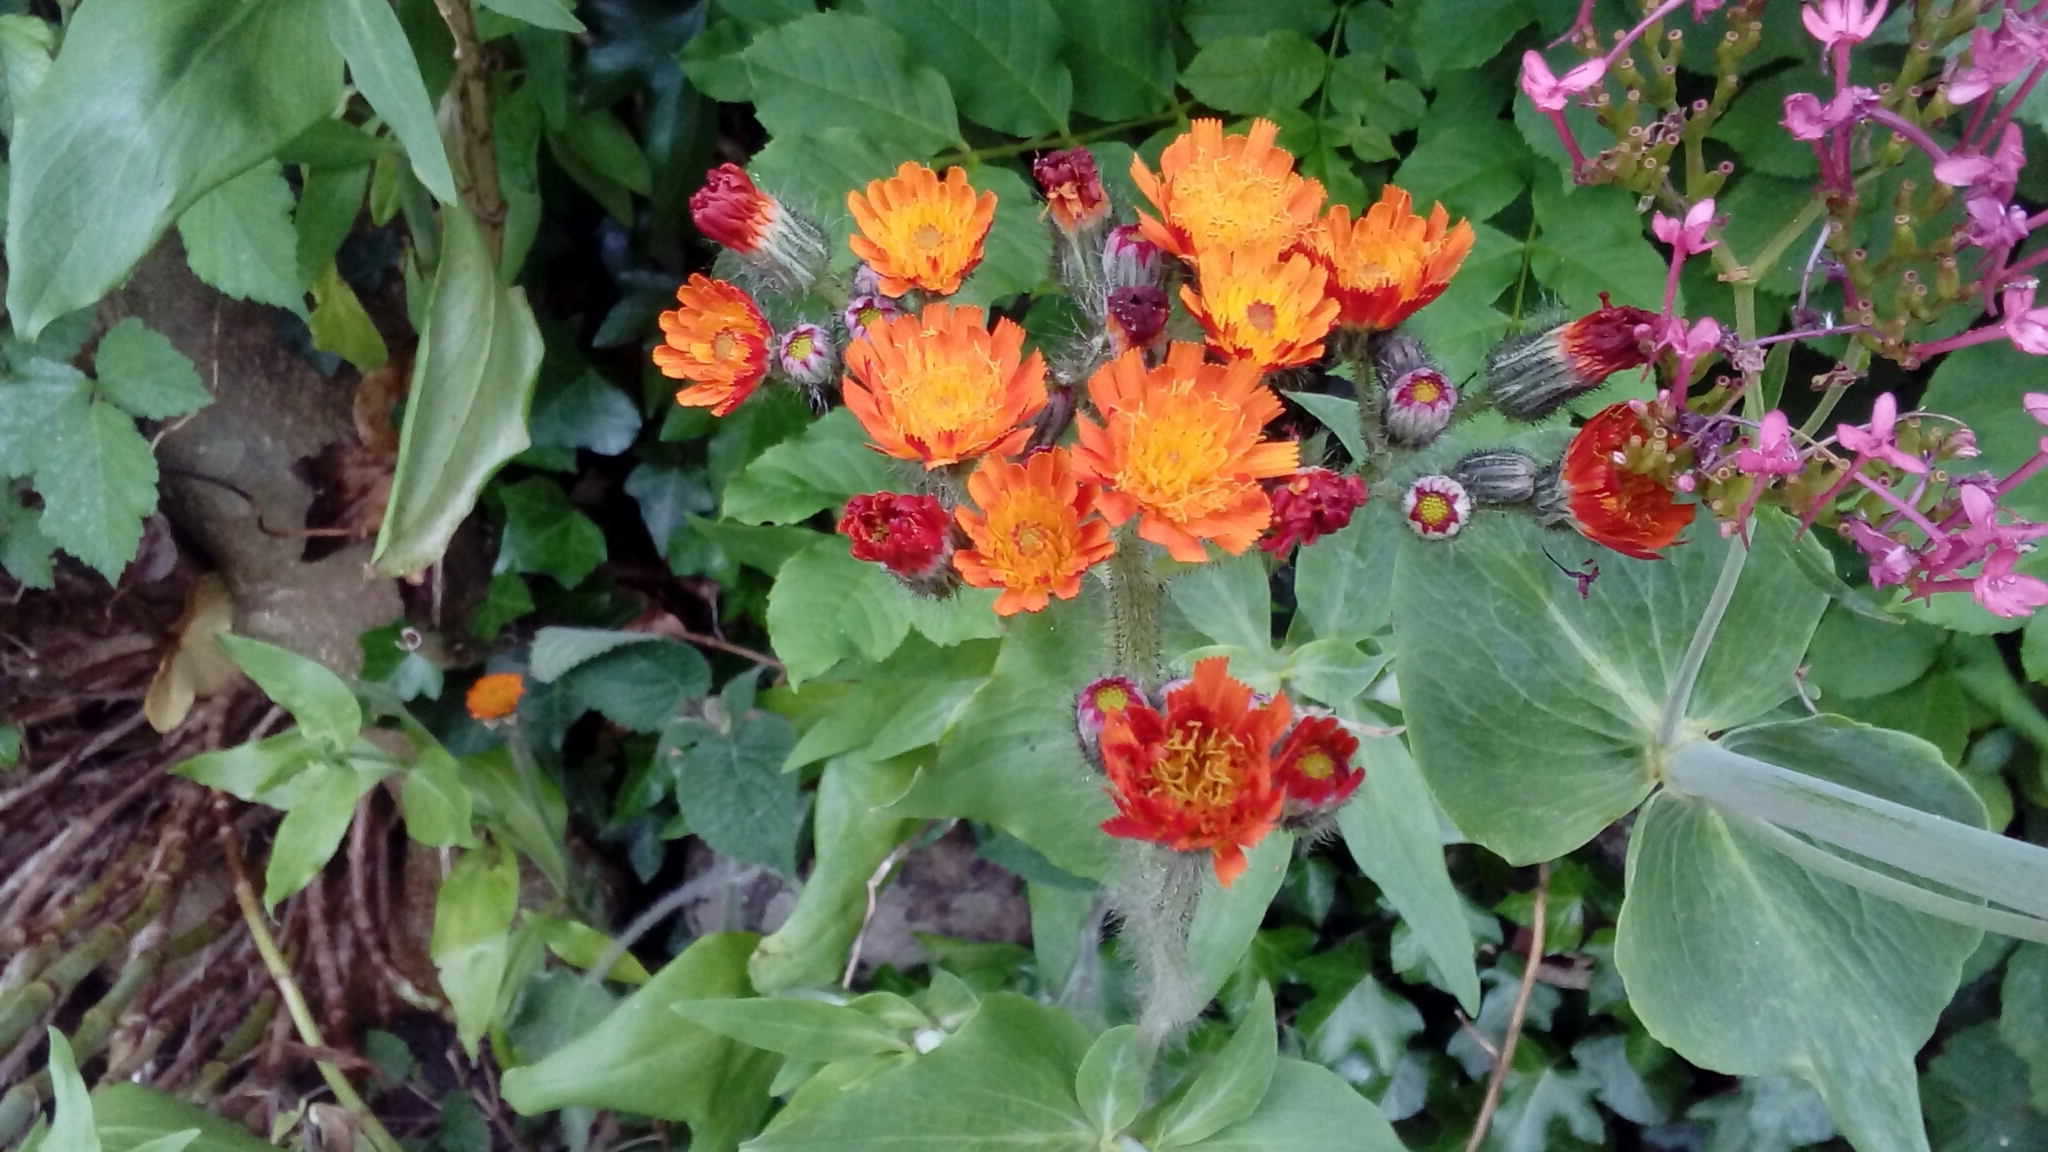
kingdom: Plantae
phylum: Tracheophyta
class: Magnoliopsida
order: Asterales
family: Asteraceae
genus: Pilosella
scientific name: Pilosella aurantiaca
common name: Fox-and-cubs
